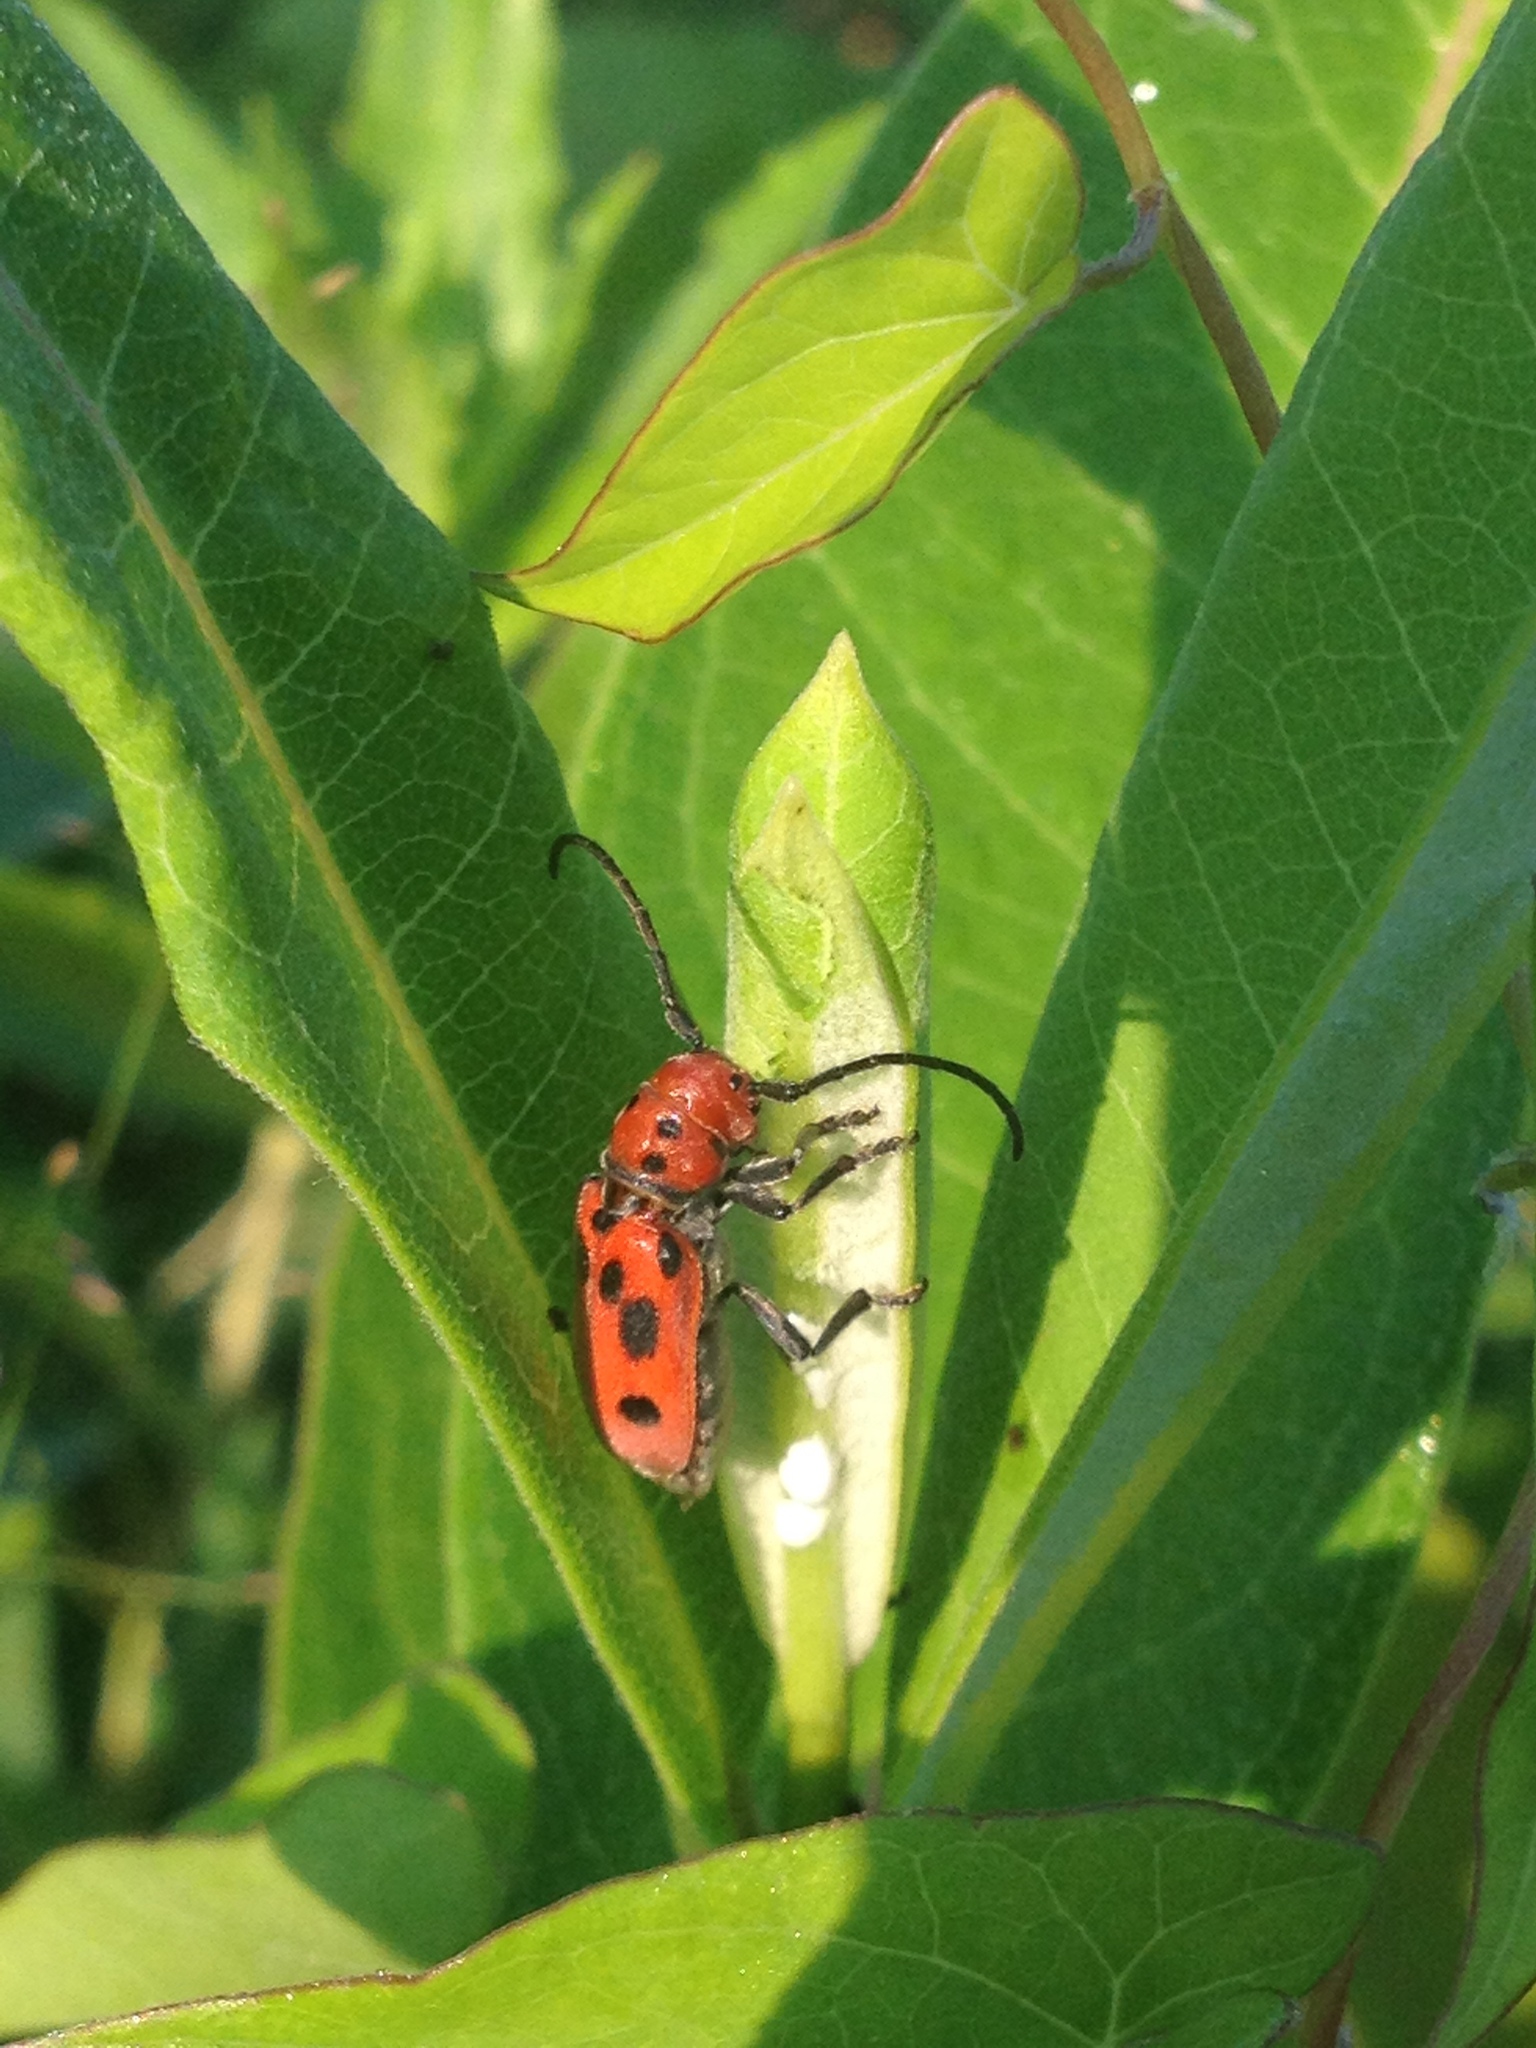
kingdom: Animalia
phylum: Arthropoda
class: Insecta
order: Coleoptera
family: Cerambycidae
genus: Tetraopes
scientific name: Tetraopes tetrophthalmus
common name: Red milkweed beetle
